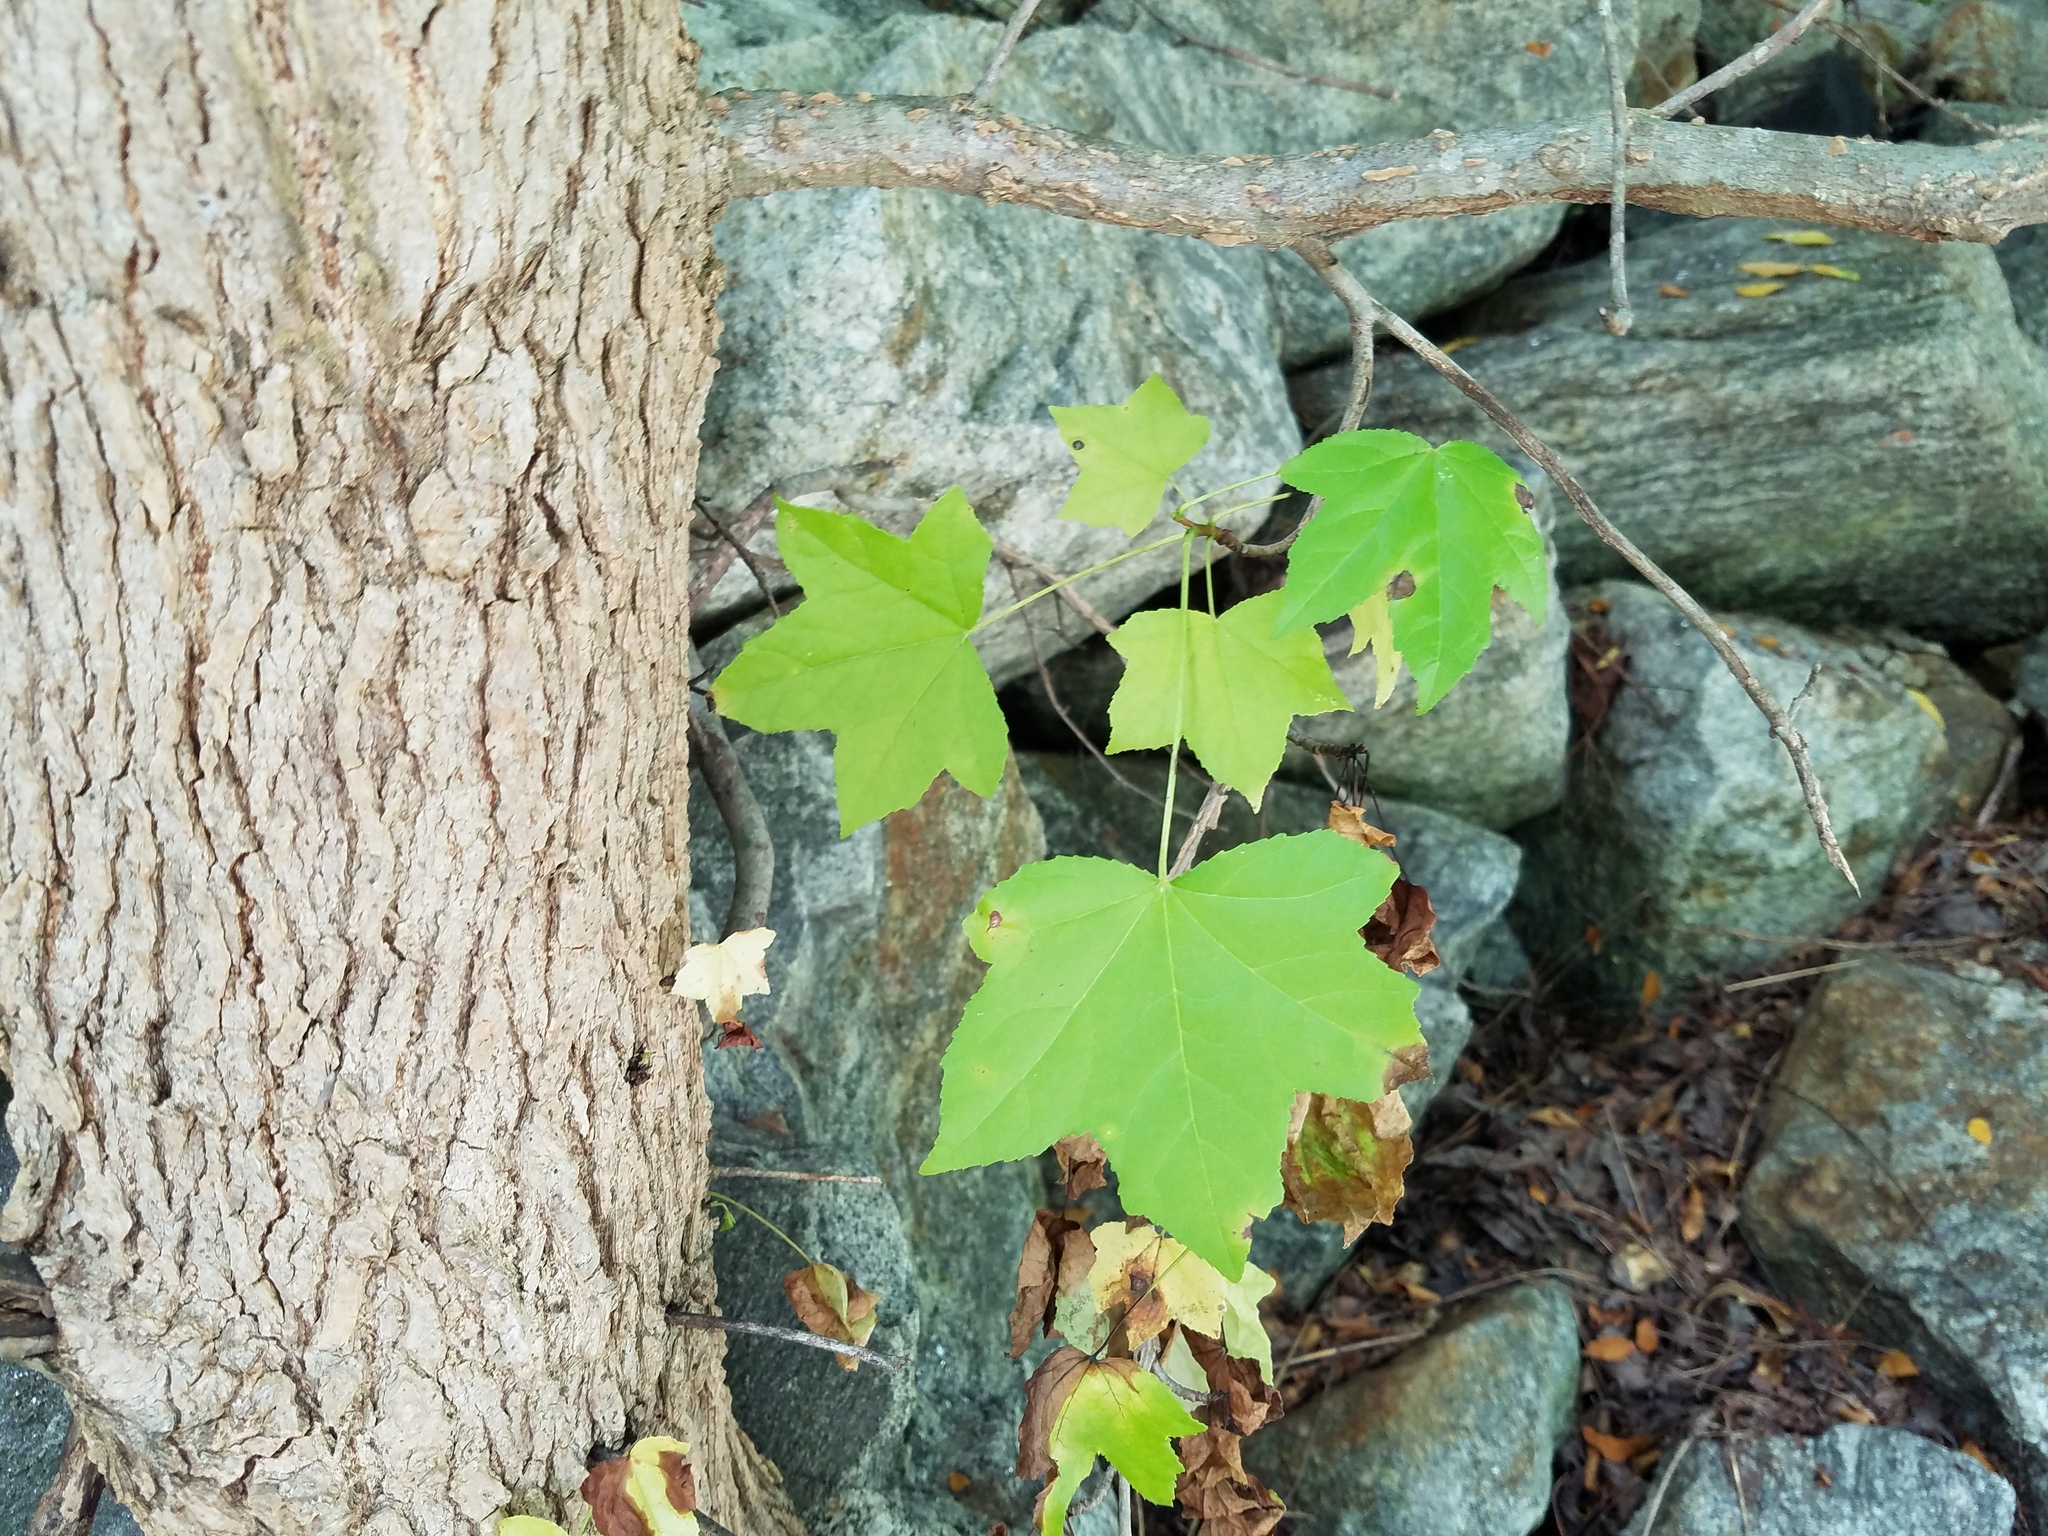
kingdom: Plantae
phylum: Tracheophyta
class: Magnoliopsida
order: Saxifragales
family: Altingiaceae
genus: Liquidambar
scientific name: Liquidambar styraciflua
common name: Sweet gum
